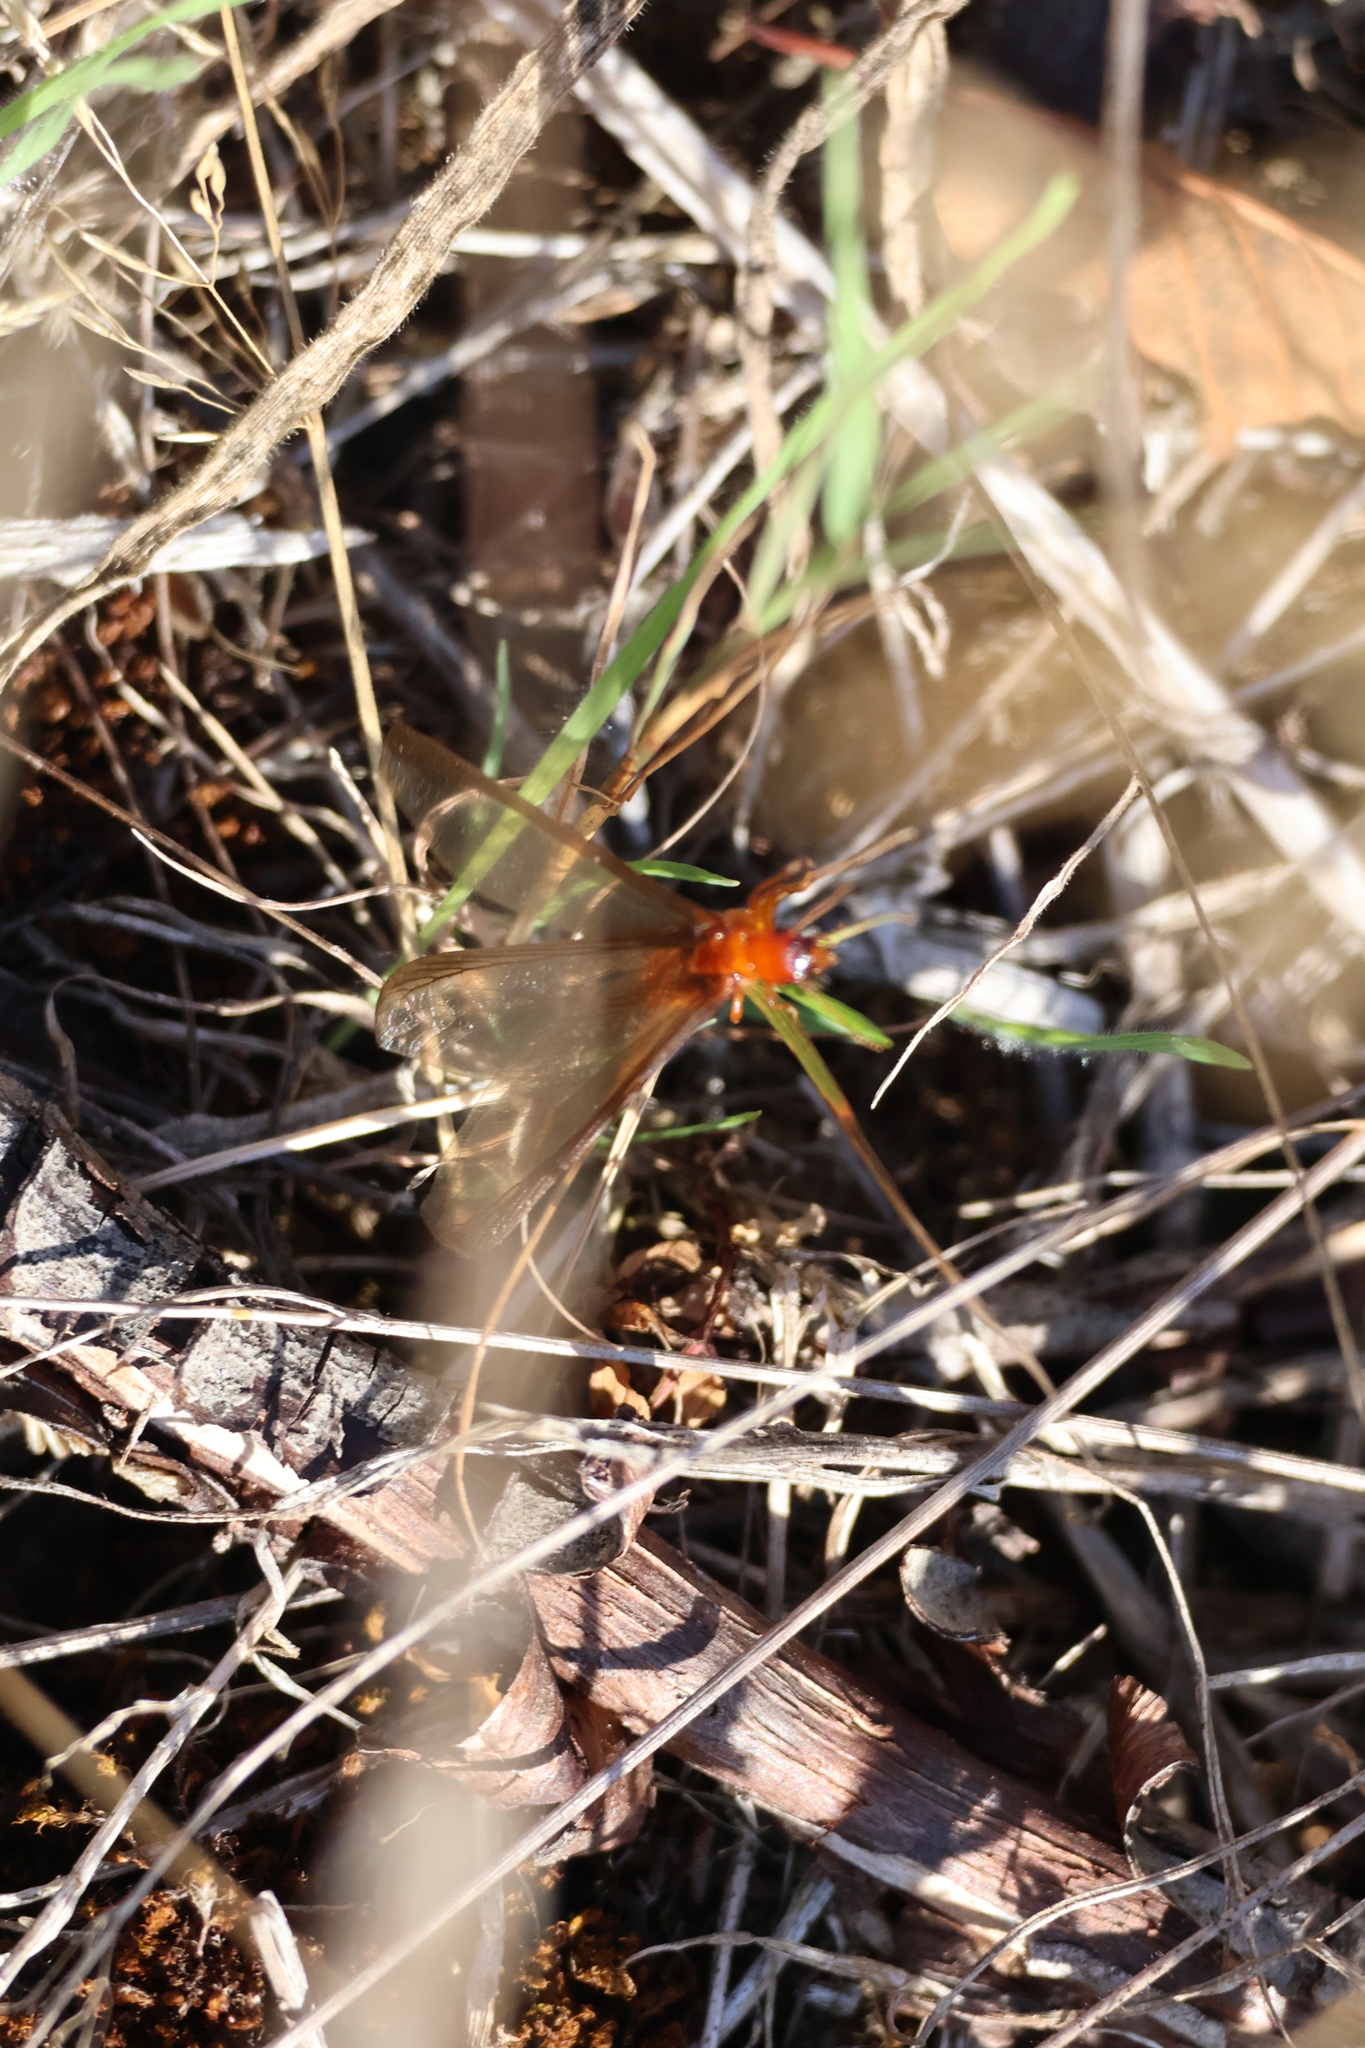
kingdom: Animalia
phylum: Arthropoda
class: Insecta
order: Blattodea
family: Archotermopsidae
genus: Zootermopsis
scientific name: Zootermopsis angusticollis
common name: Rottenwood termite
